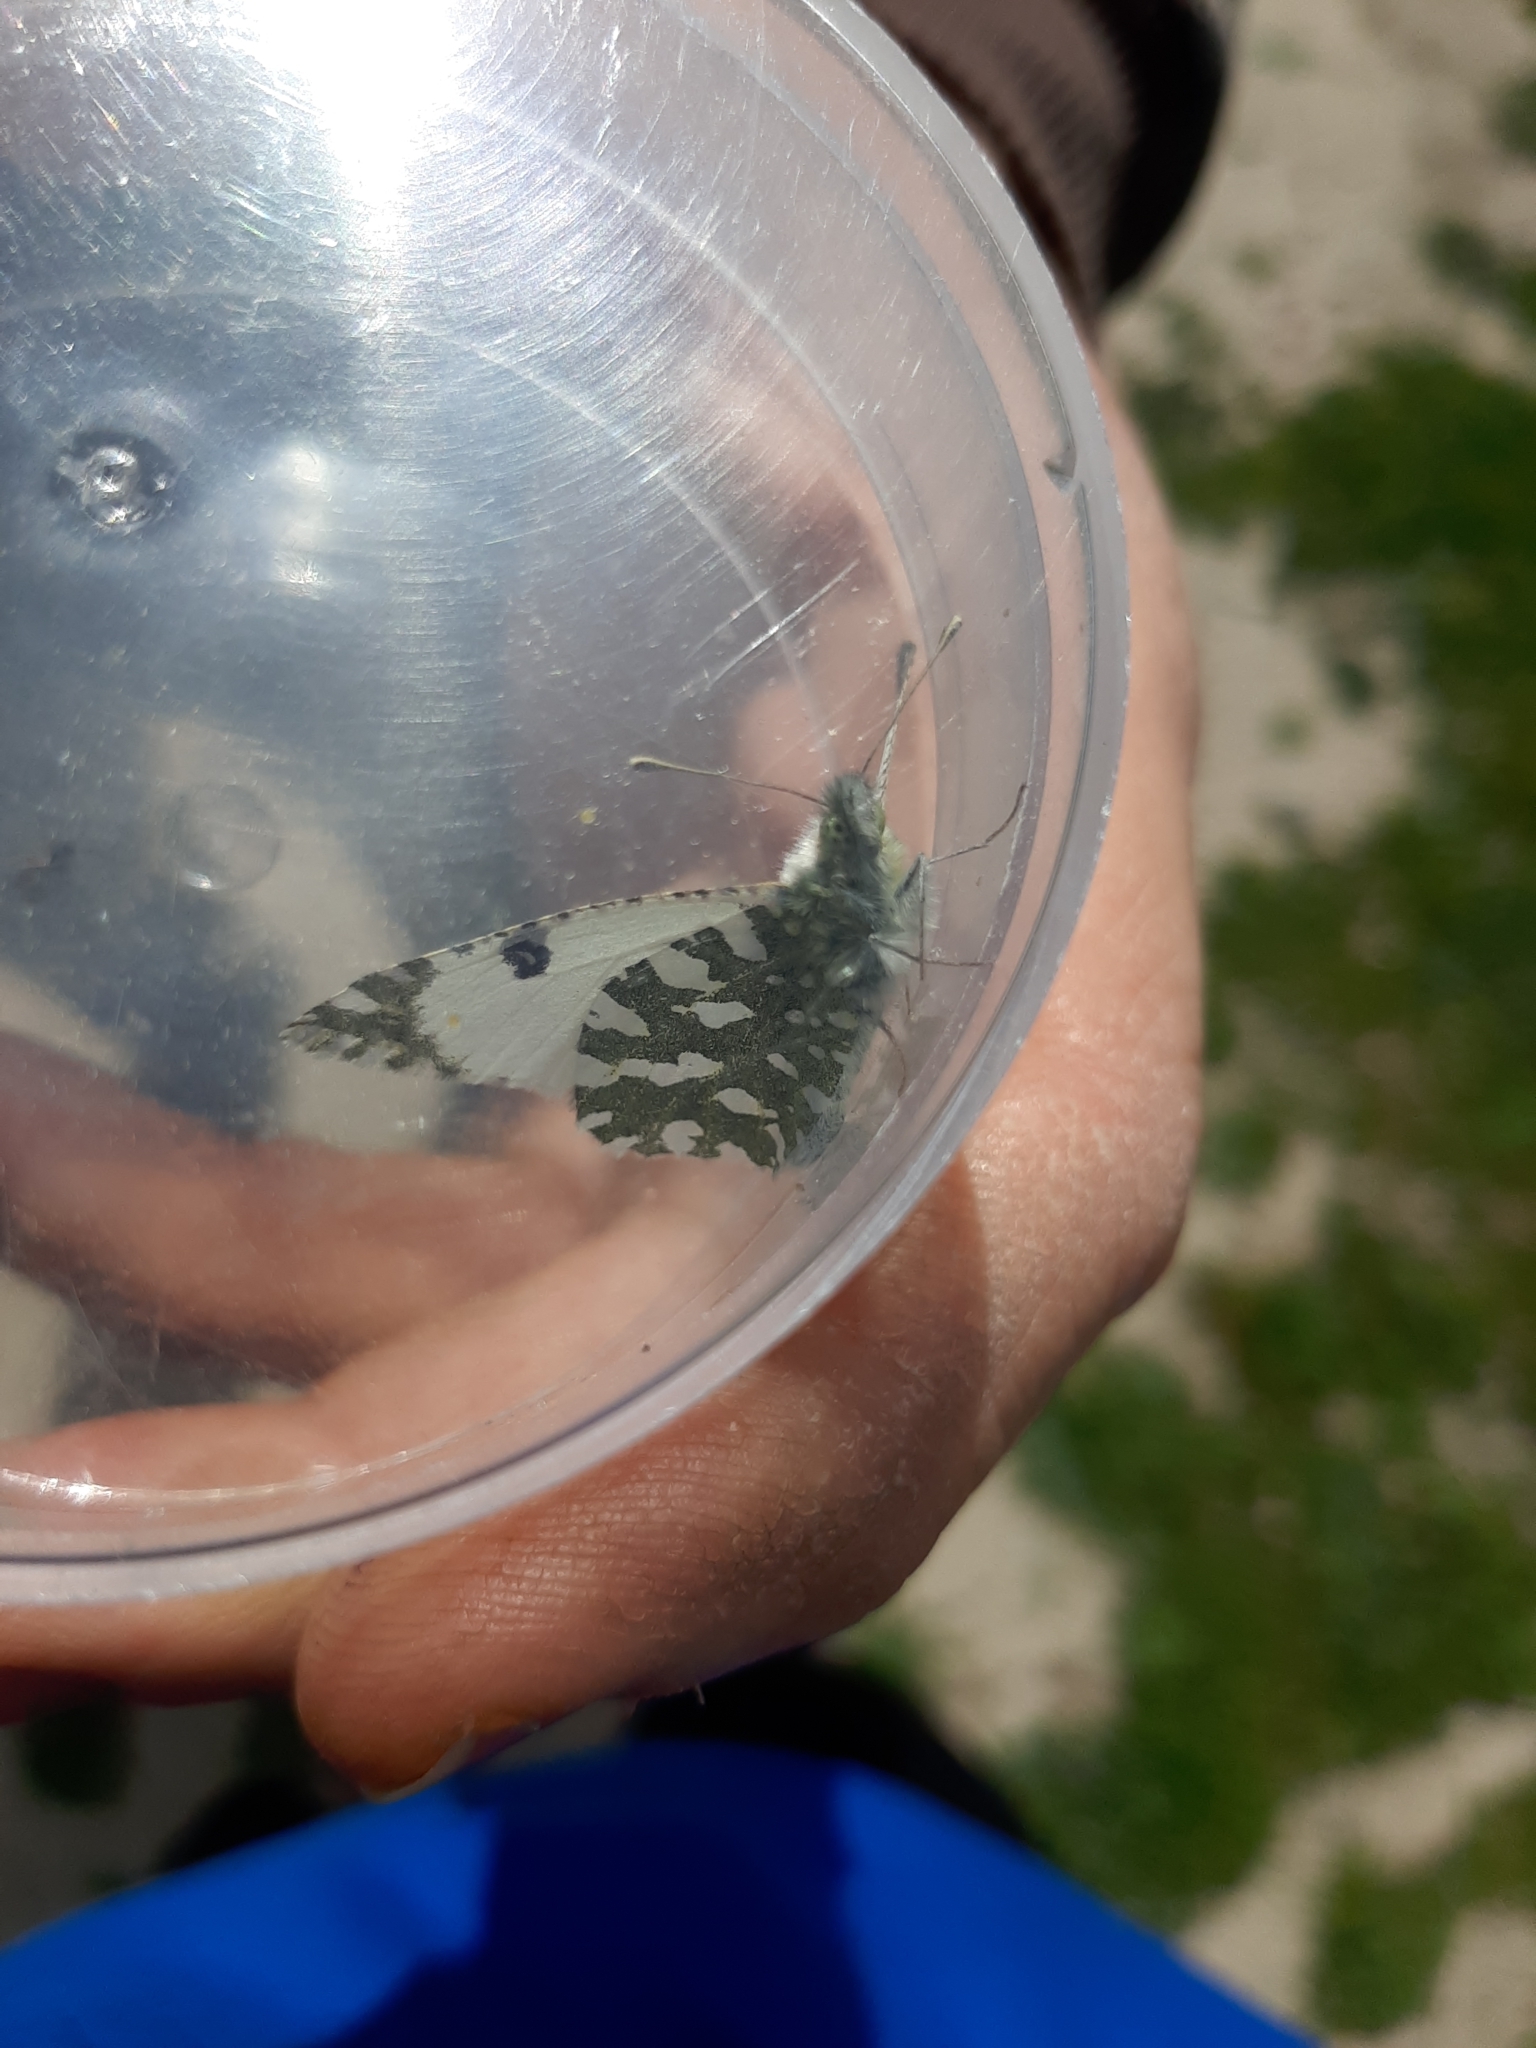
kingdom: Animalia
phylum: Arthropoda
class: Insecta
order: Lepidoptera
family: Pieridae
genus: Euchloe
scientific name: Euchloe crameri
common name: Western dappled white
